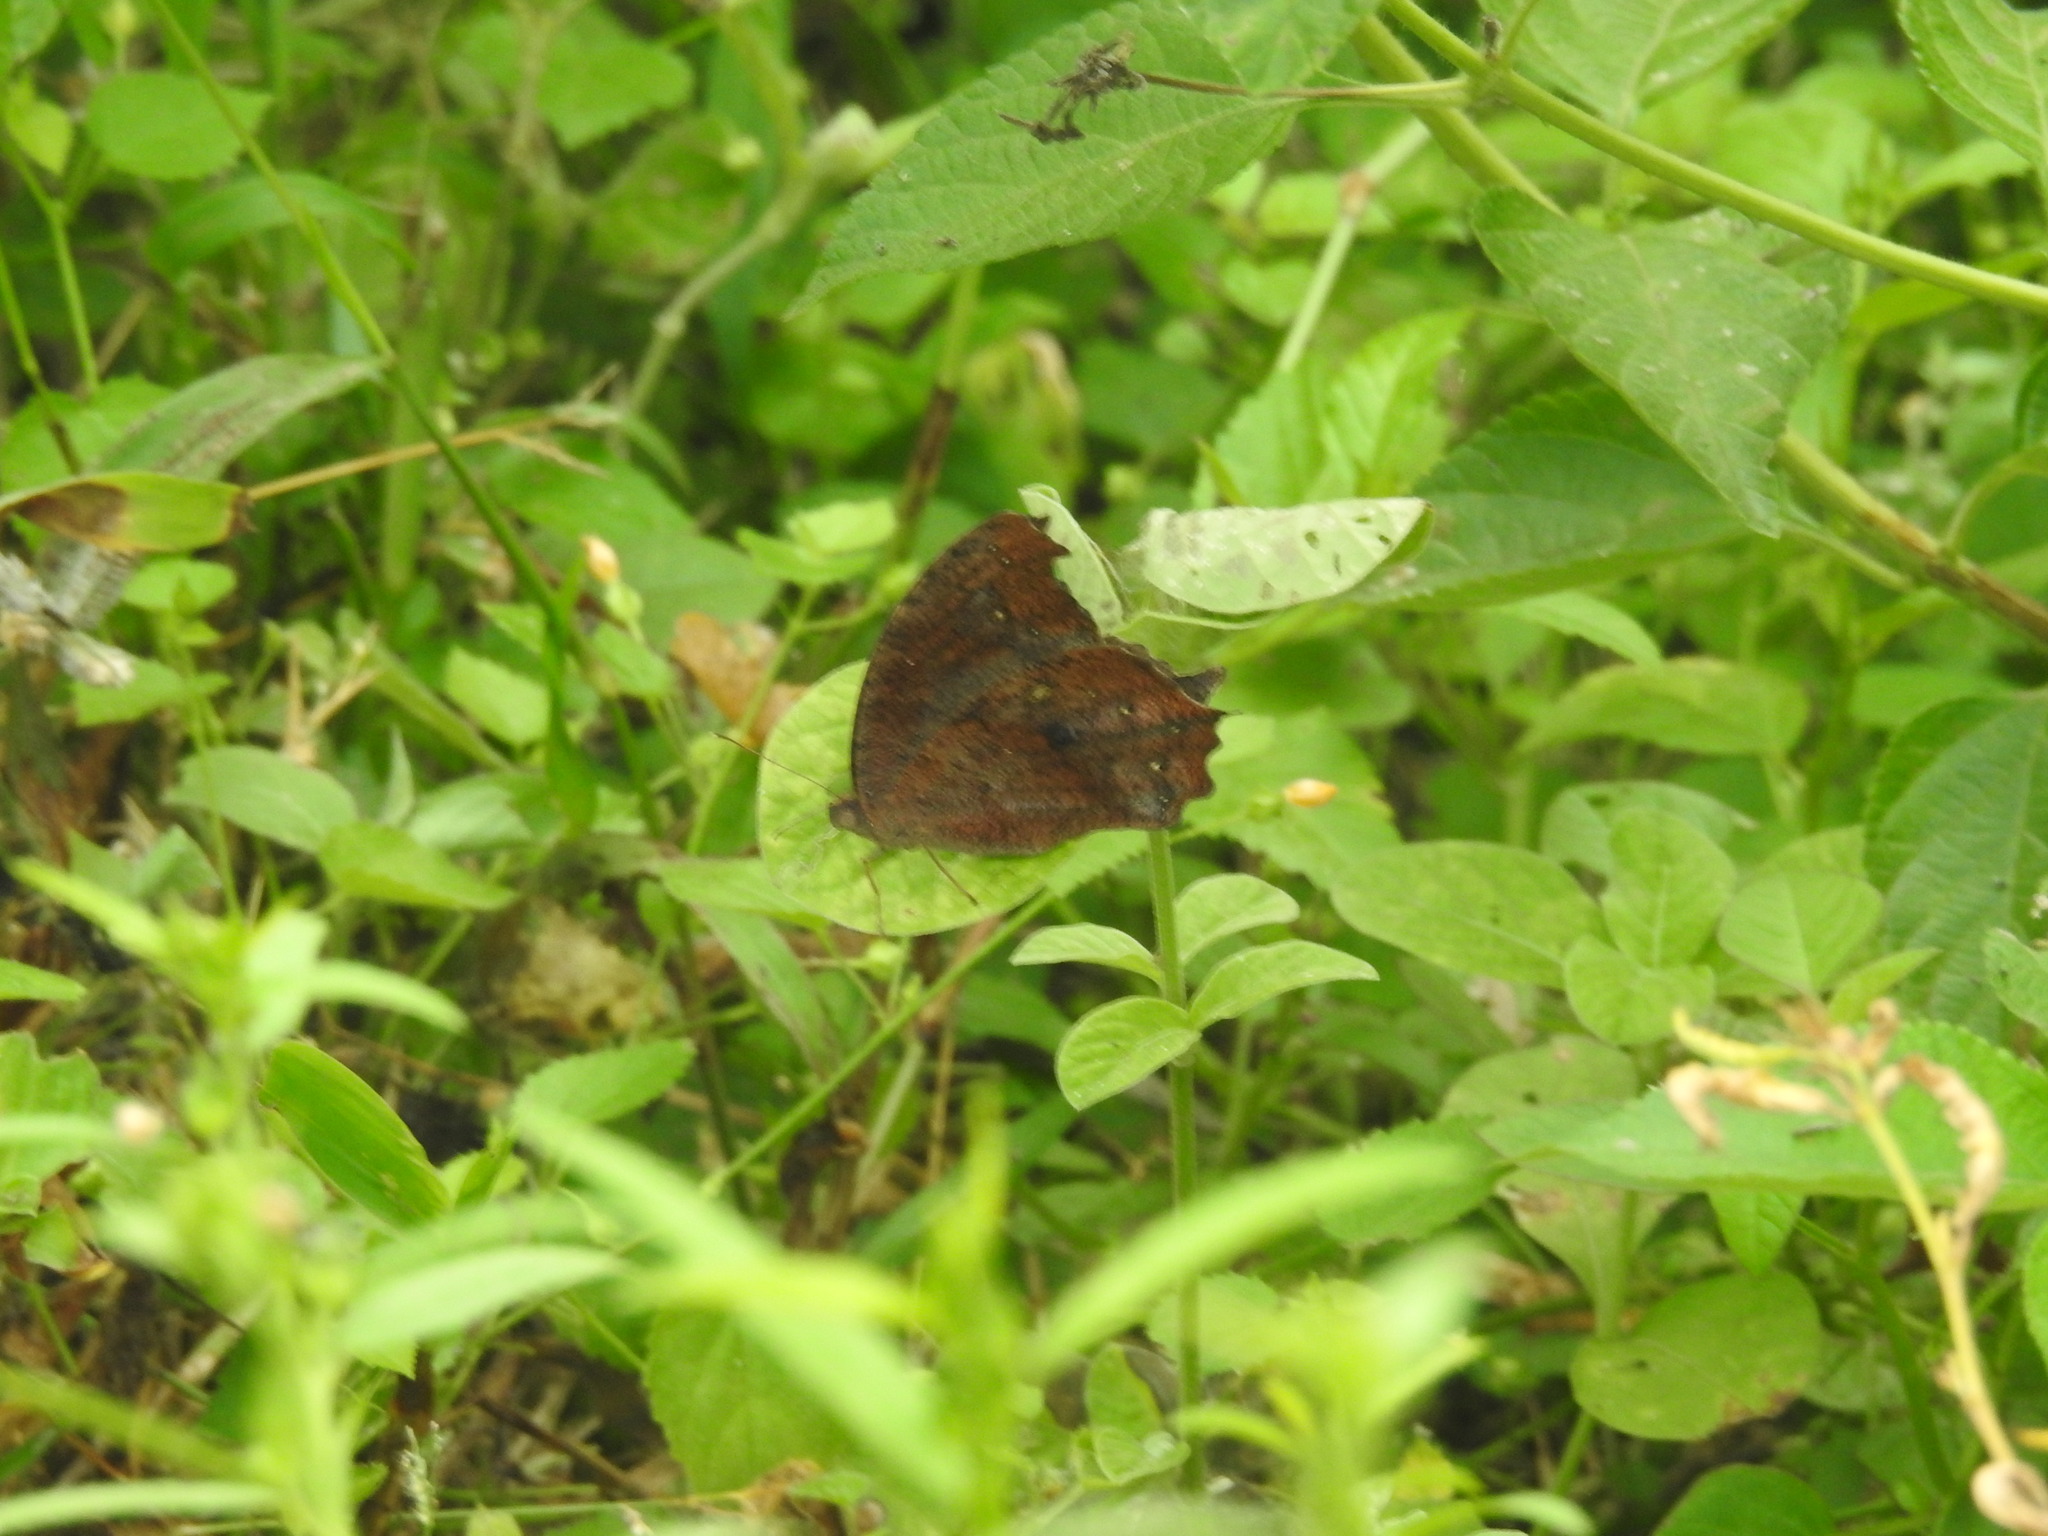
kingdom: Animalia
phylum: Arthropoda
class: Insecta
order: Lepidoptera
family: Nymphalidae
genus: Melanitis
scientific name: Melanitis phedima
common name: Dark evening brown
